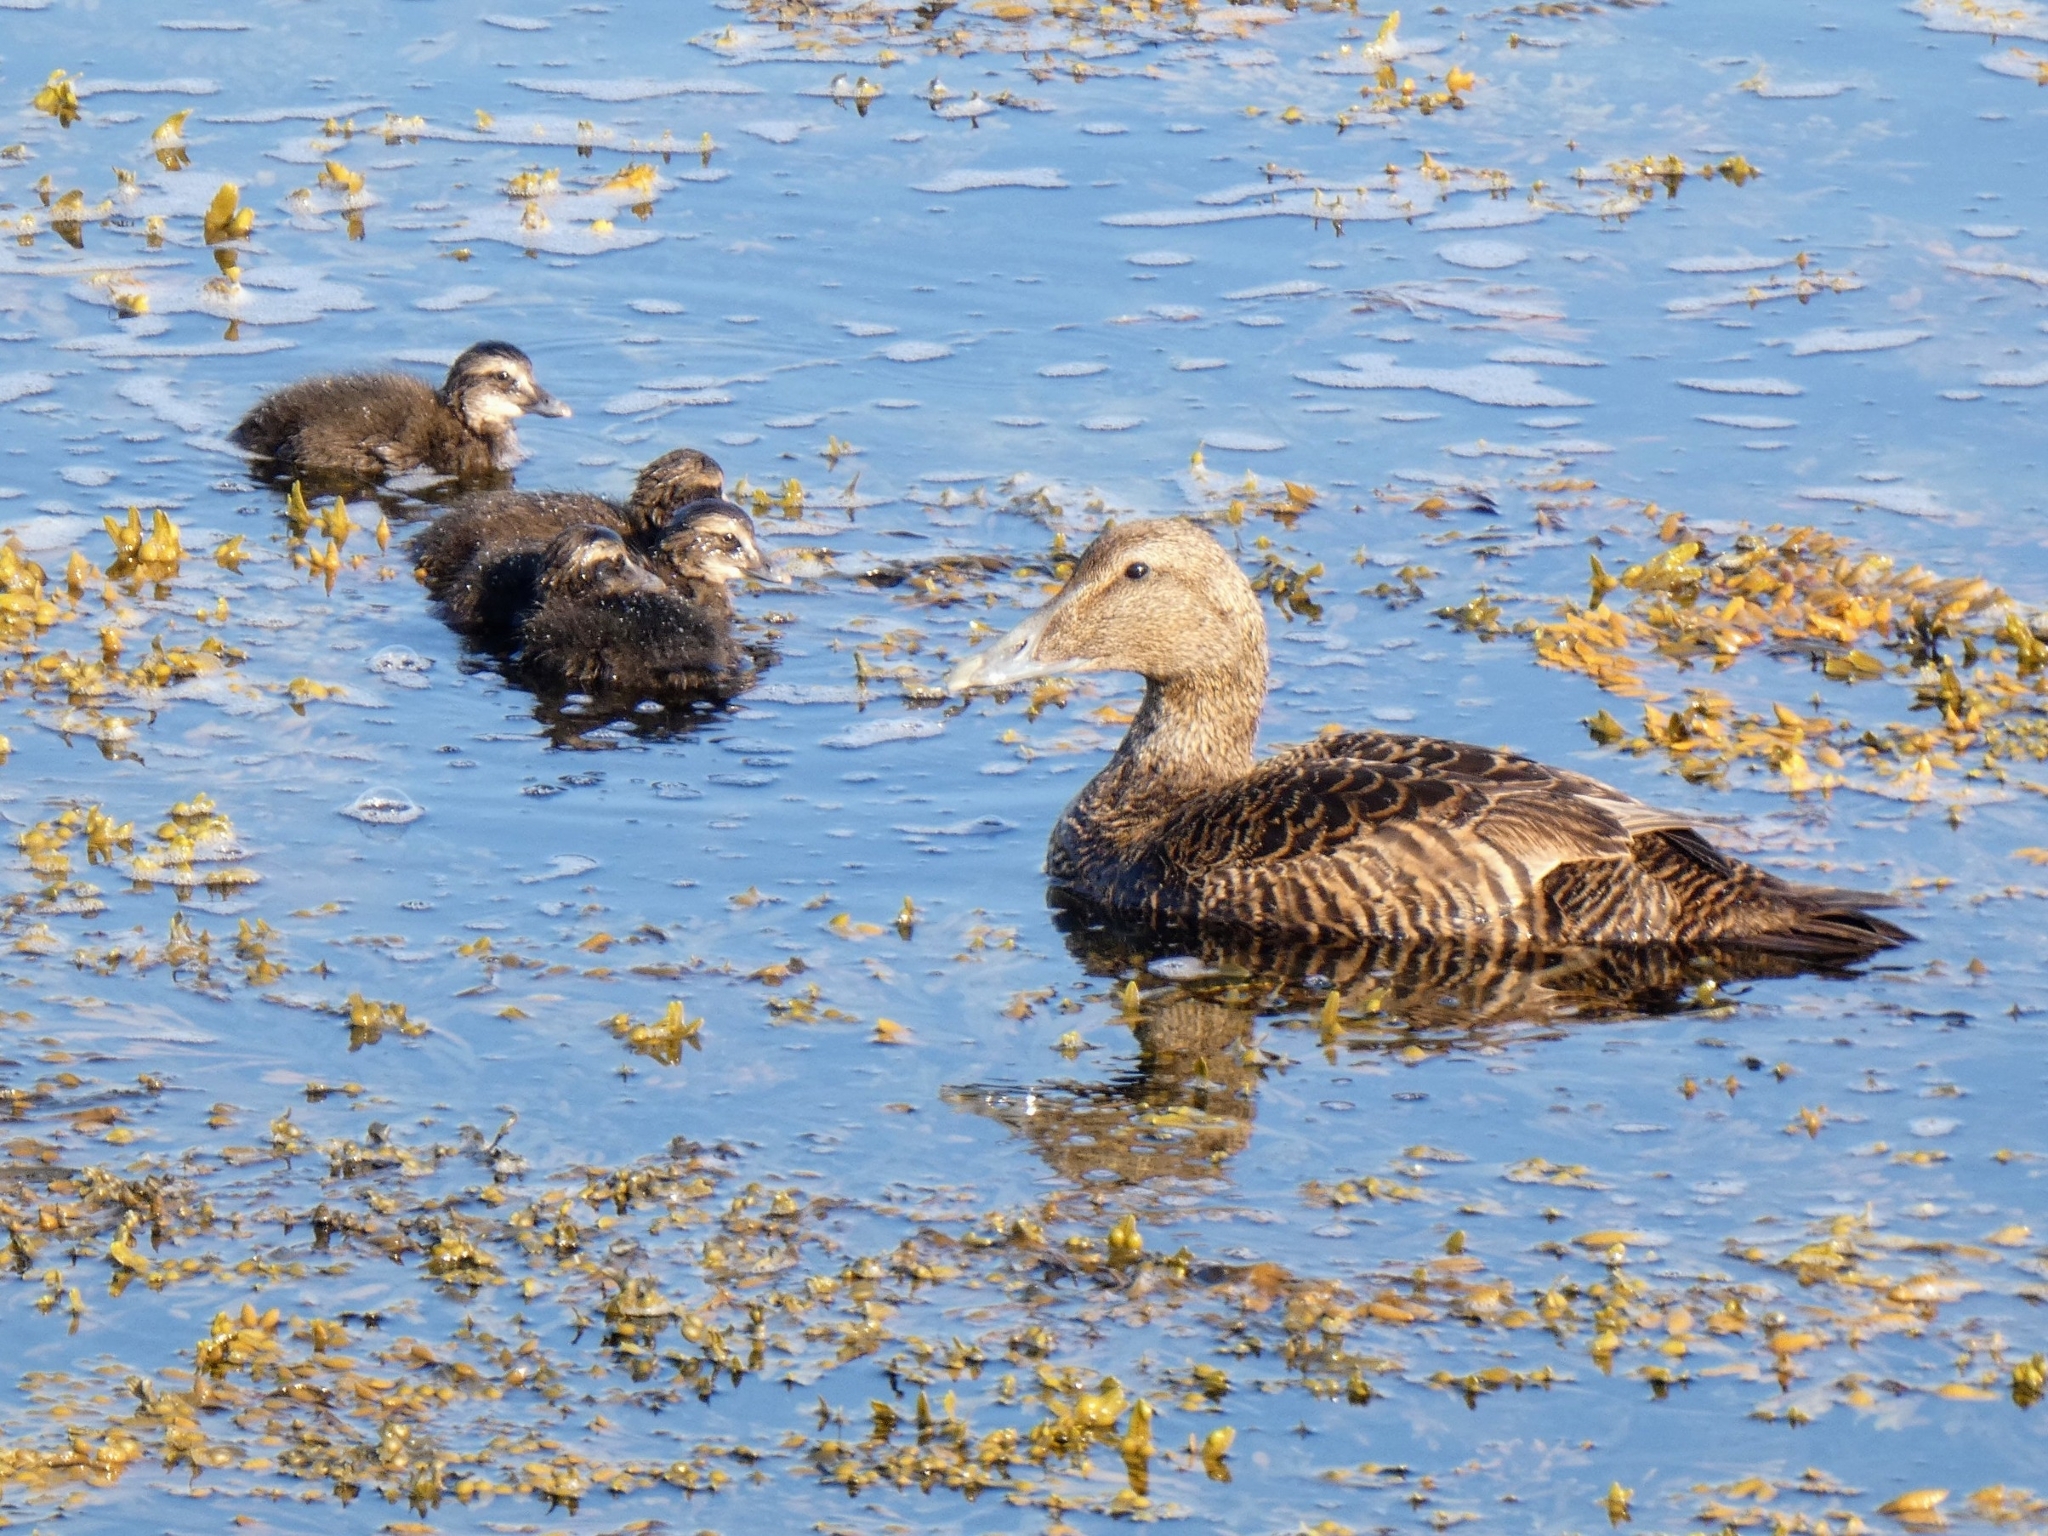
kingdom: Animalia
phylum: Chordata
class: Aves
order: Anseriformes
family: Anatidae
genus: Somateria
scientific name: Somateria mollissima
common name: Common eider
